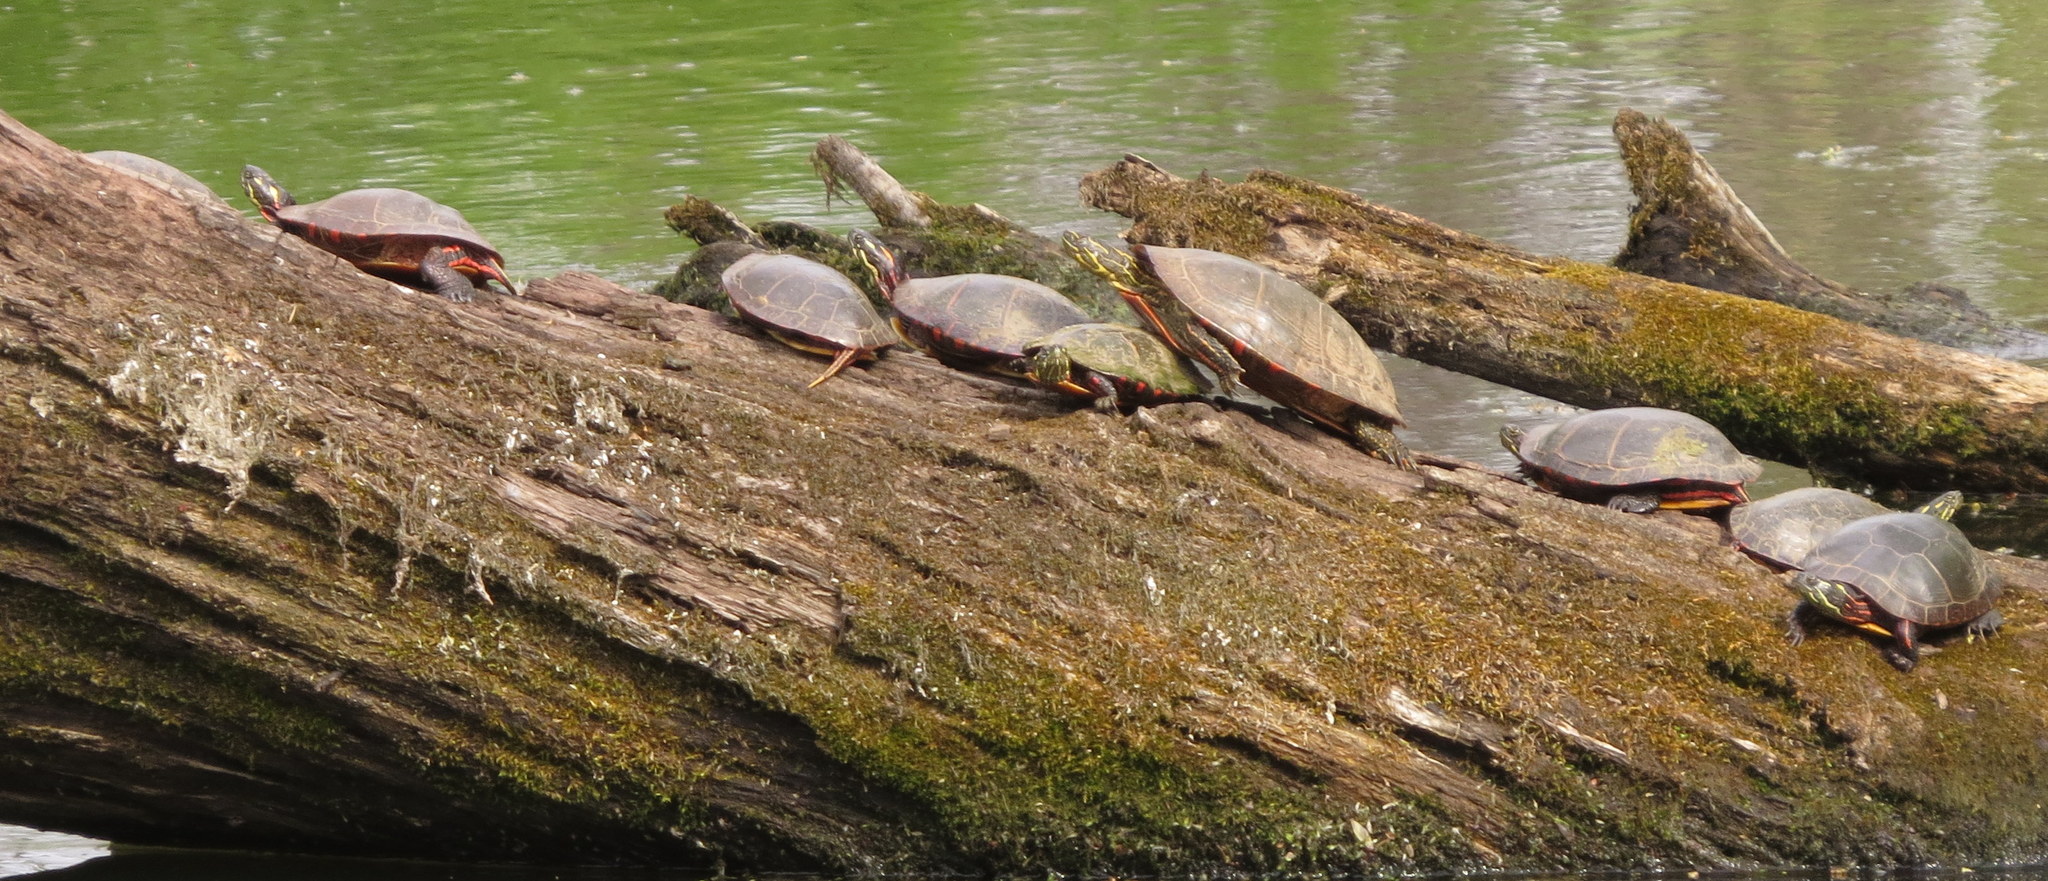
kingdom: Animalia
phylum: Chordata
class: Testudines
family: Emydidae
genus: Chrysemys
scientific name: Chrysemys picta
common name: Painted turtle
